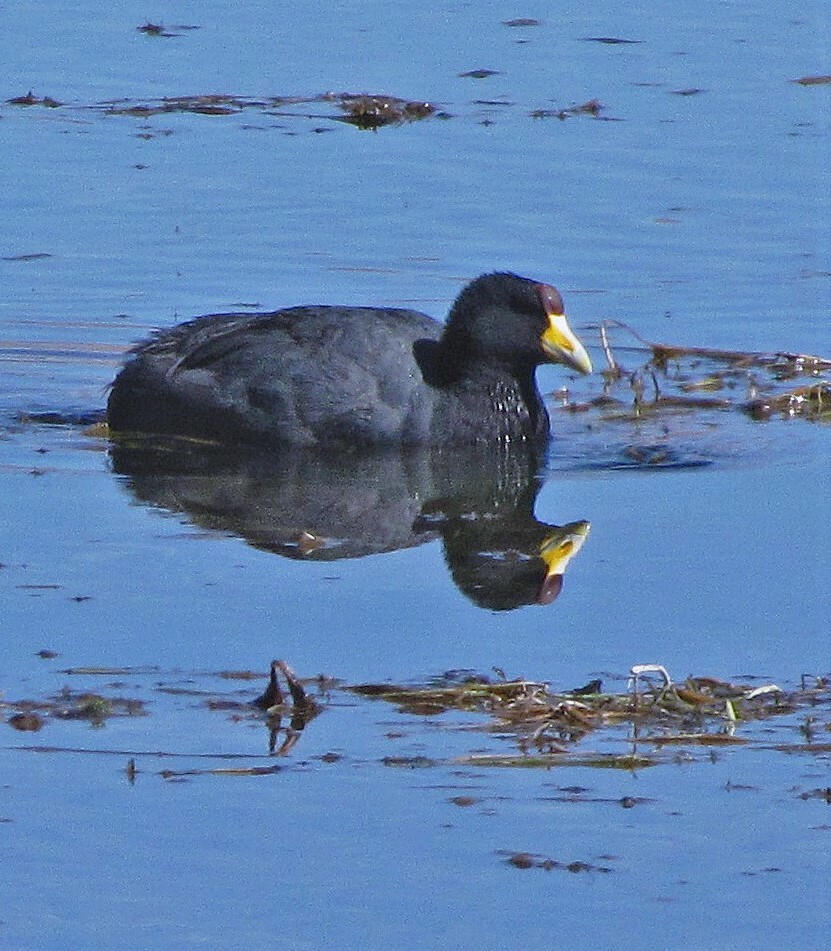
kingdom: Animalia
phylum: Chordata
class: Aves
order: Gruiformes
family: Rallidae
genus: Fulica
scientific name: Fulica ardesiaca
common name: Andean coot
